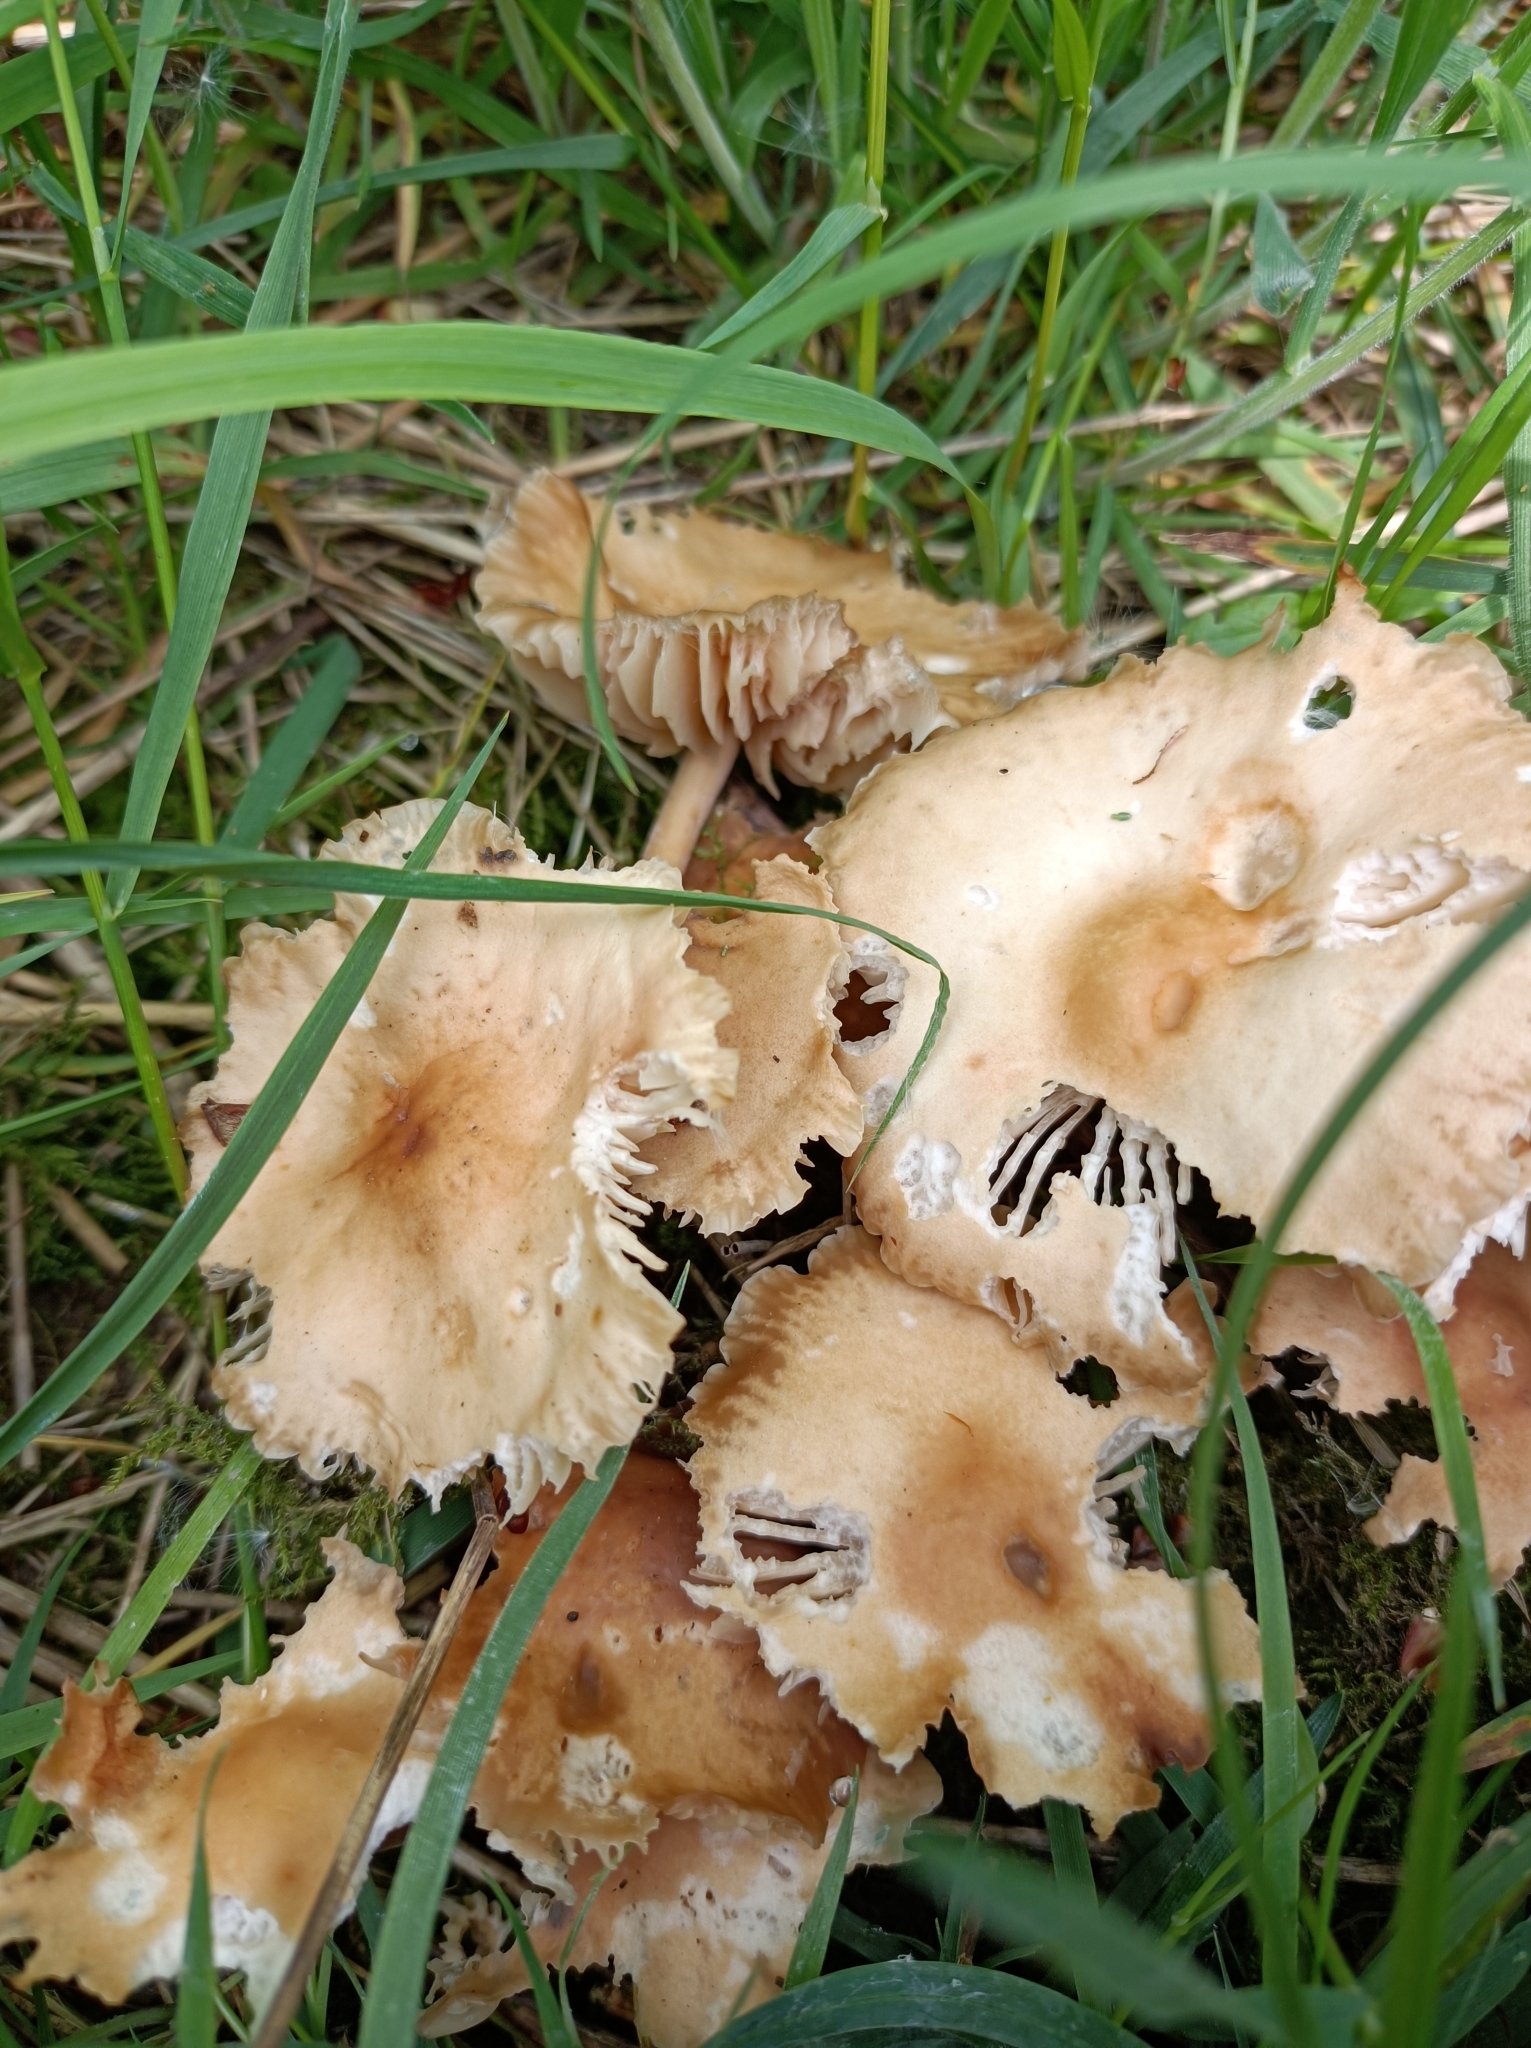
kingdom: Fungi
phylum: Basidiomycota
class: Agaricomycetes
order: Agaricales
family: Marasmiaceae
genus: Marasmius
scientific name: Marasmius oreades
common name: Fairy ring champignon
